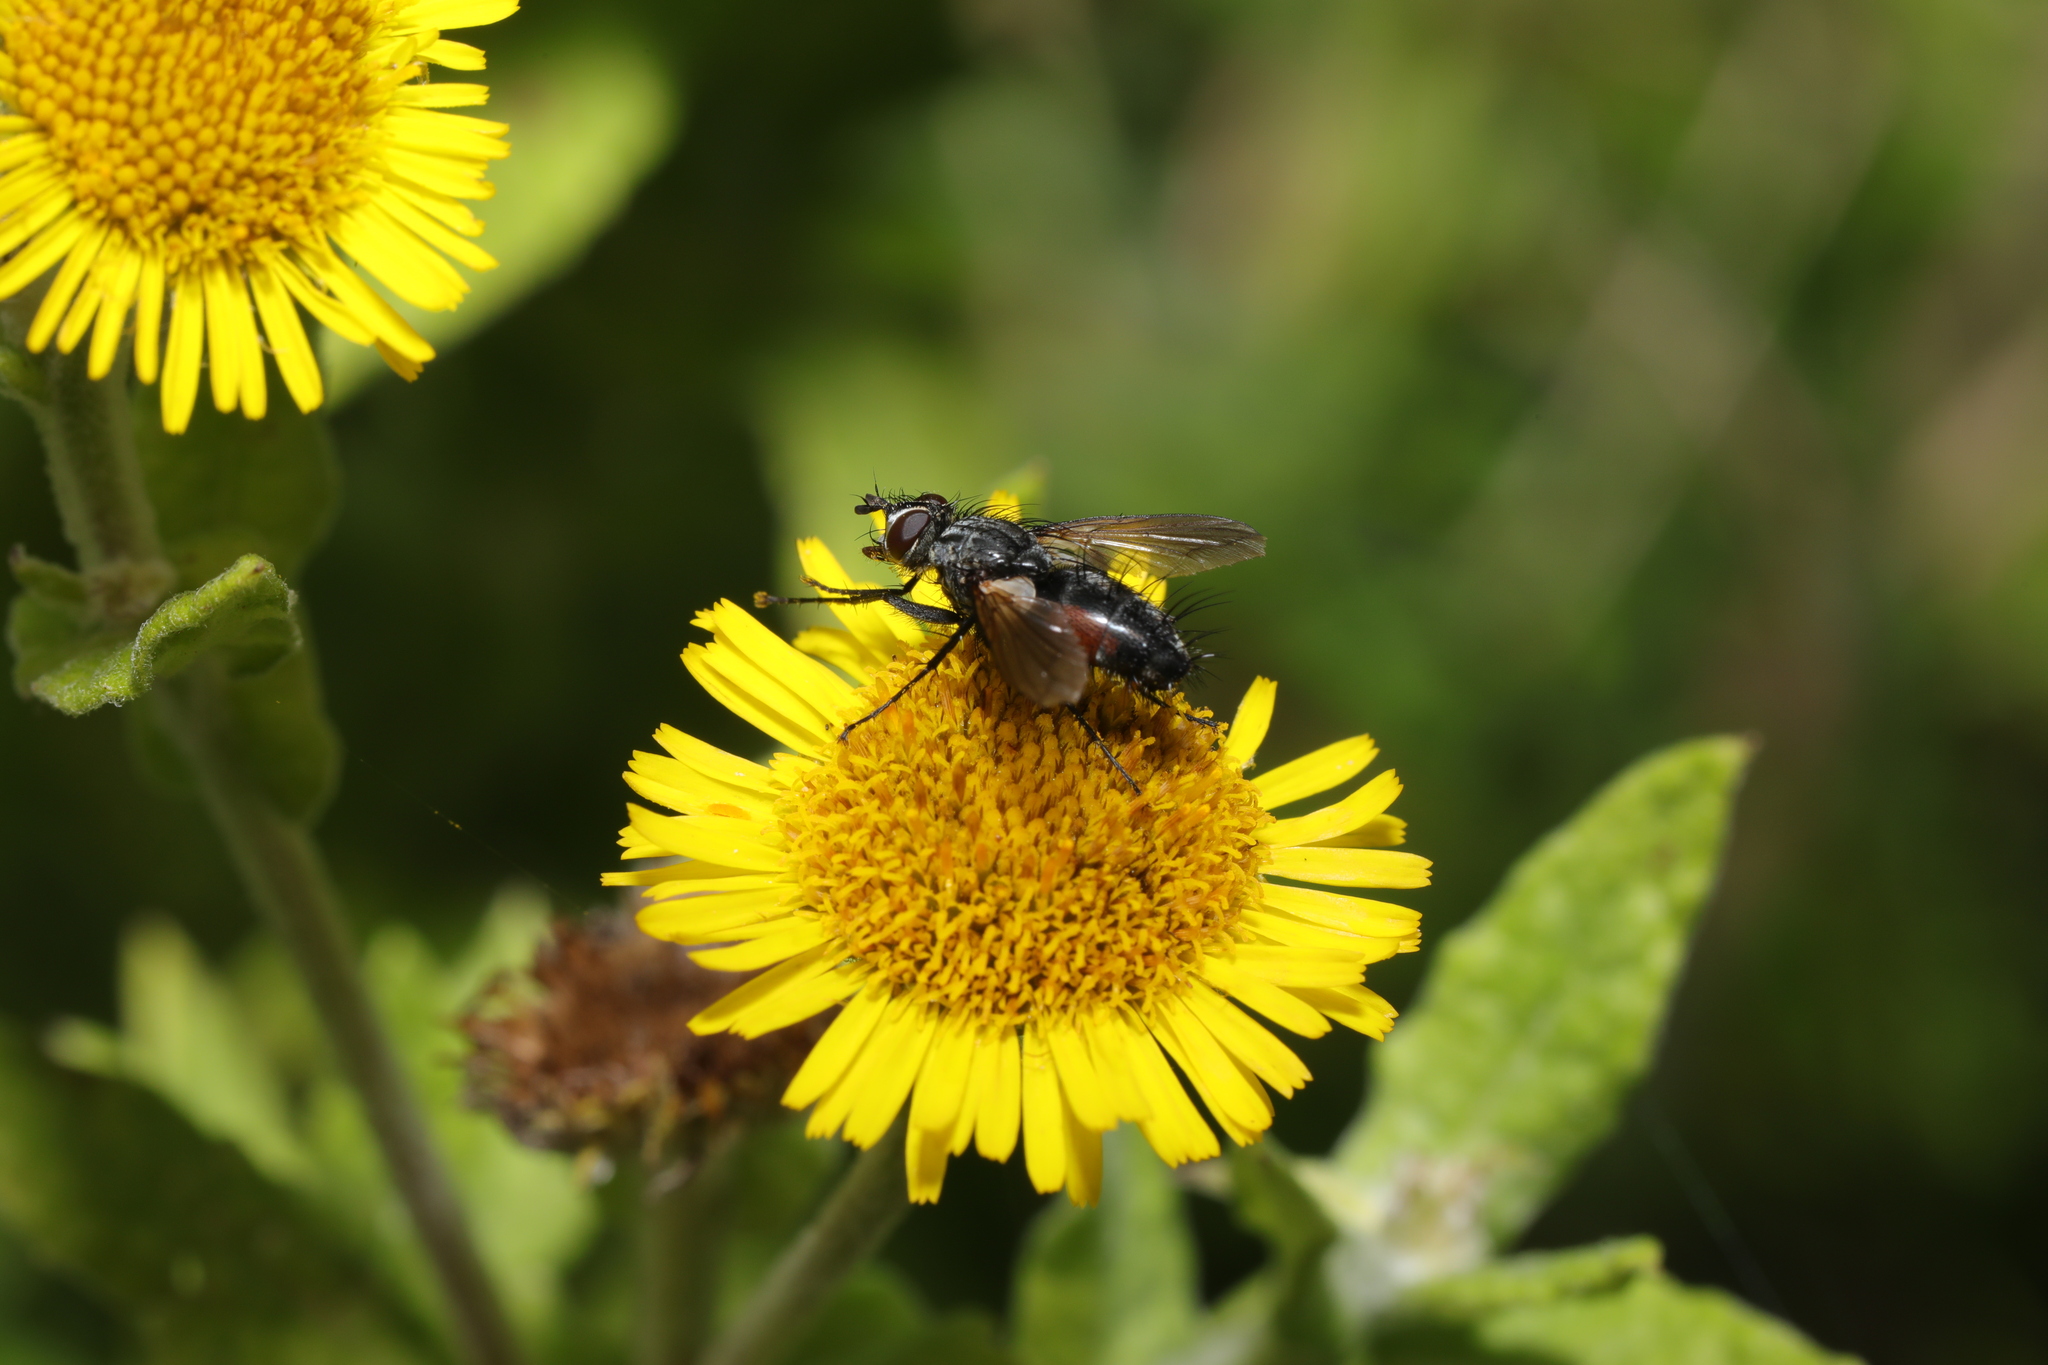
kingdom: Animalia
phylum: Arthropoda
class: Insecta
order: Diptera
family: Tachinidae
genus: Eriothrix
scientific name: Eriothrix rufomaculatus
